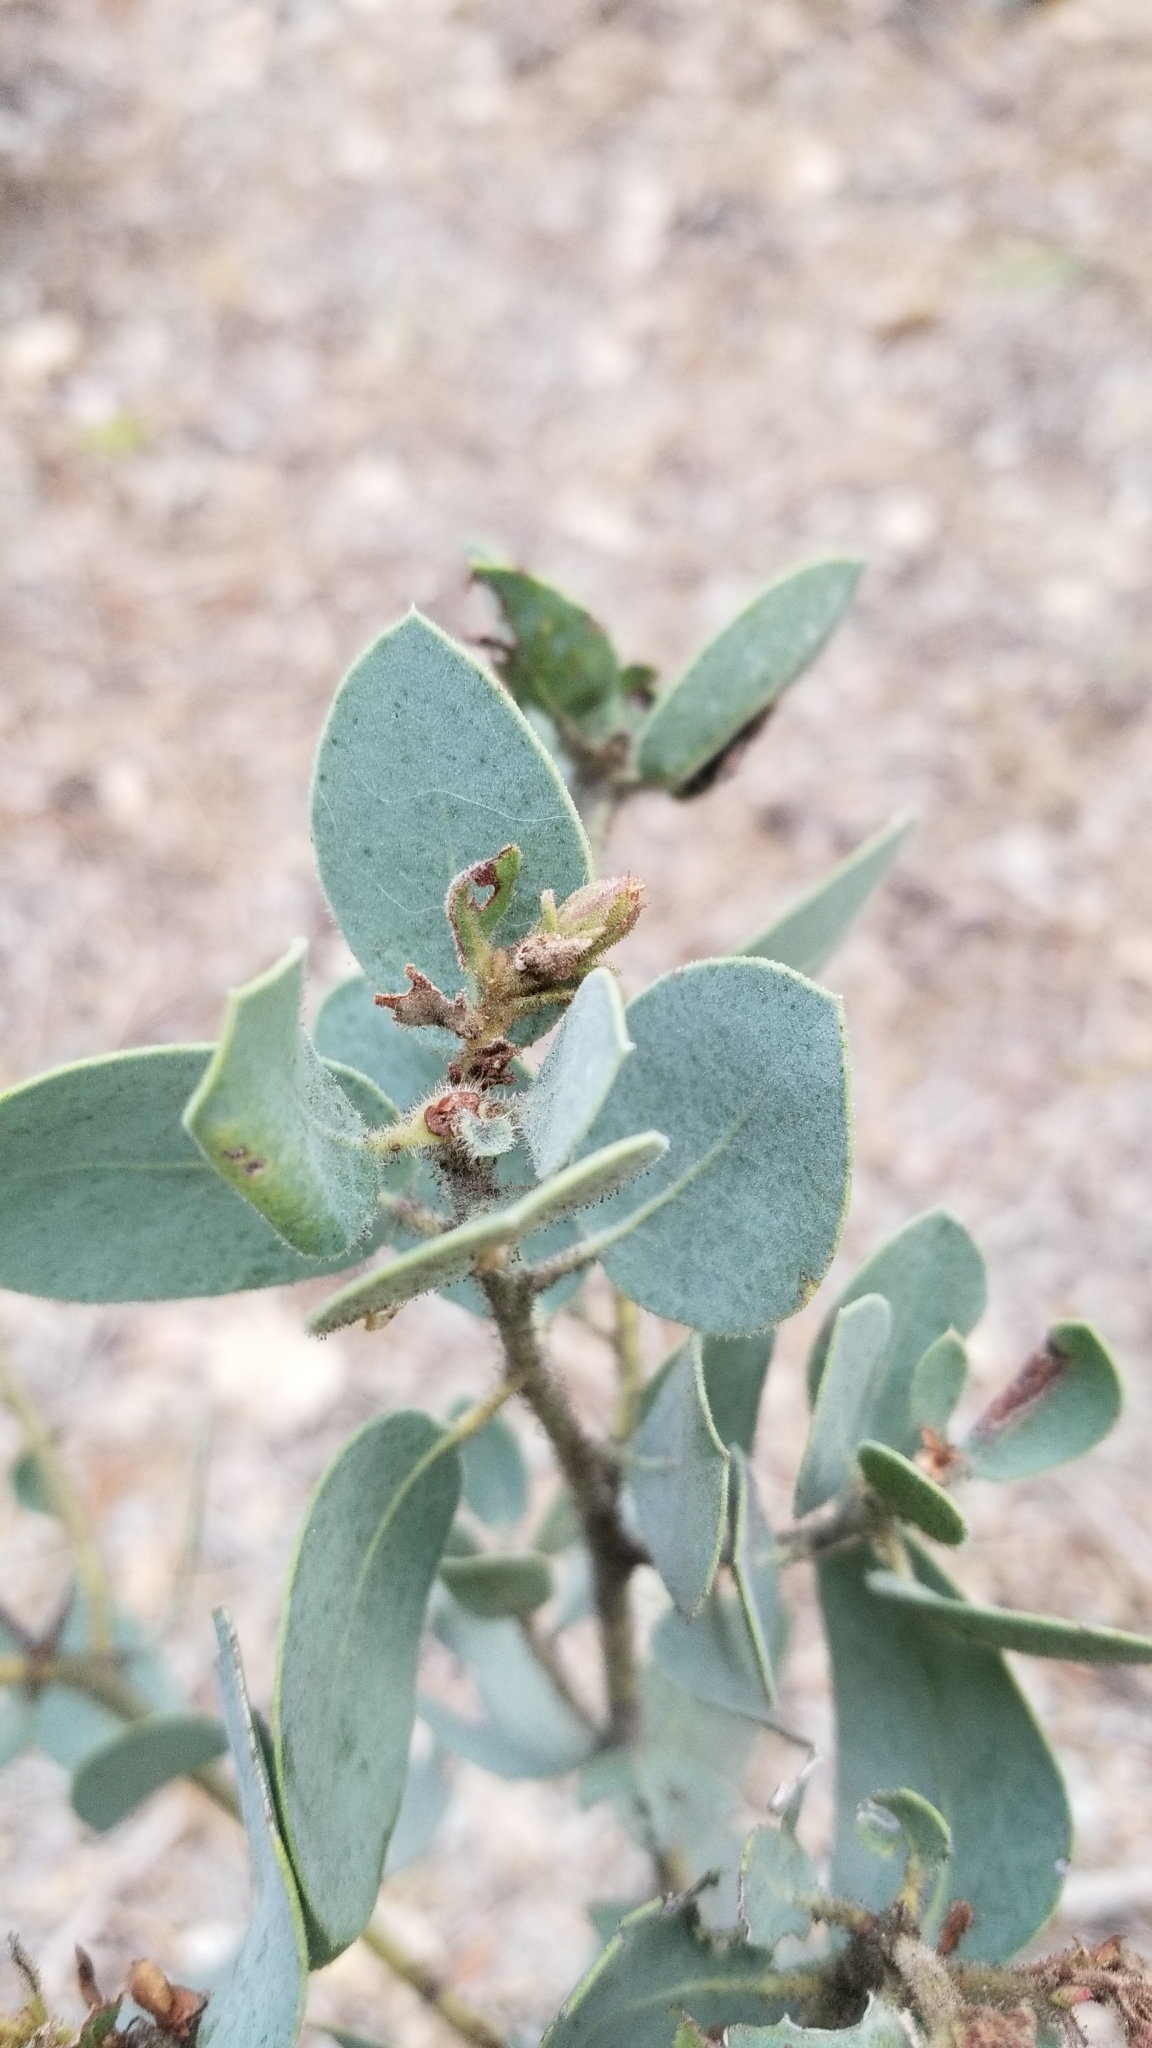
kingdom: Plantae
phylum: Tracheophyta
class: Magnoliopsida
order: Ericales
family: Ericaceae
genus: Arctostaphylos
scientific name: Arctostaphylos pringlei
